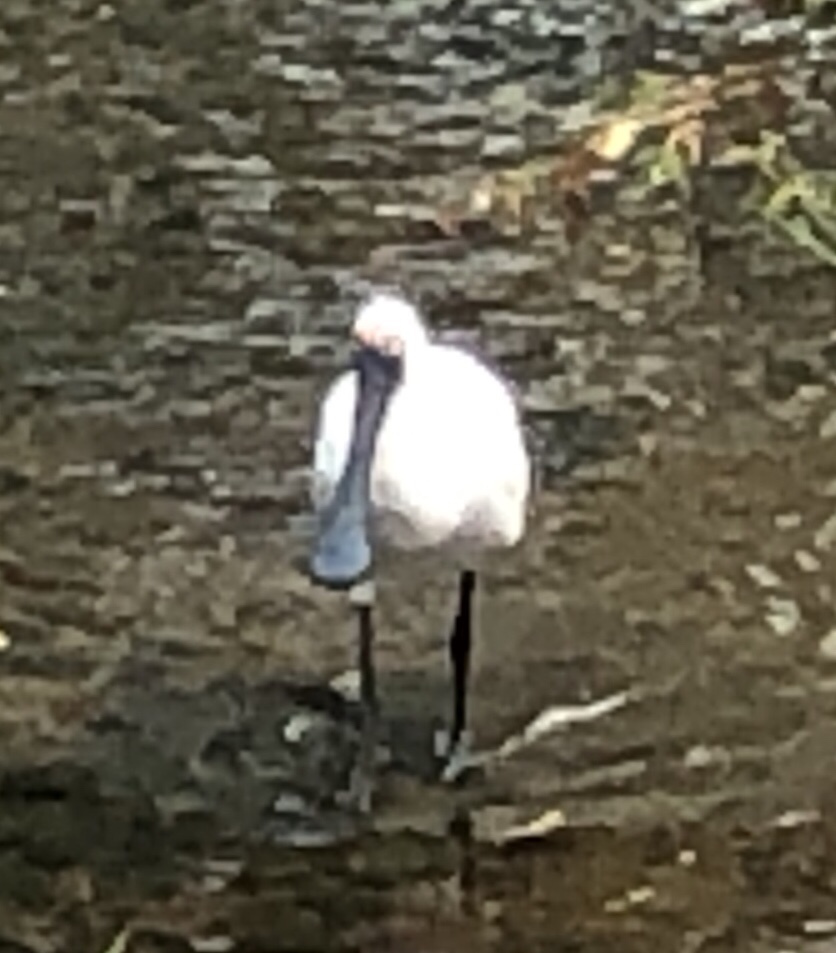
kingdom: Animalia
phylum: Chordata
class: Aves
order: Pelecaniformes
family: Threskiornithidae
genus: Platalea
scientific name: Platalea regia
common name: Royal spoonbill
